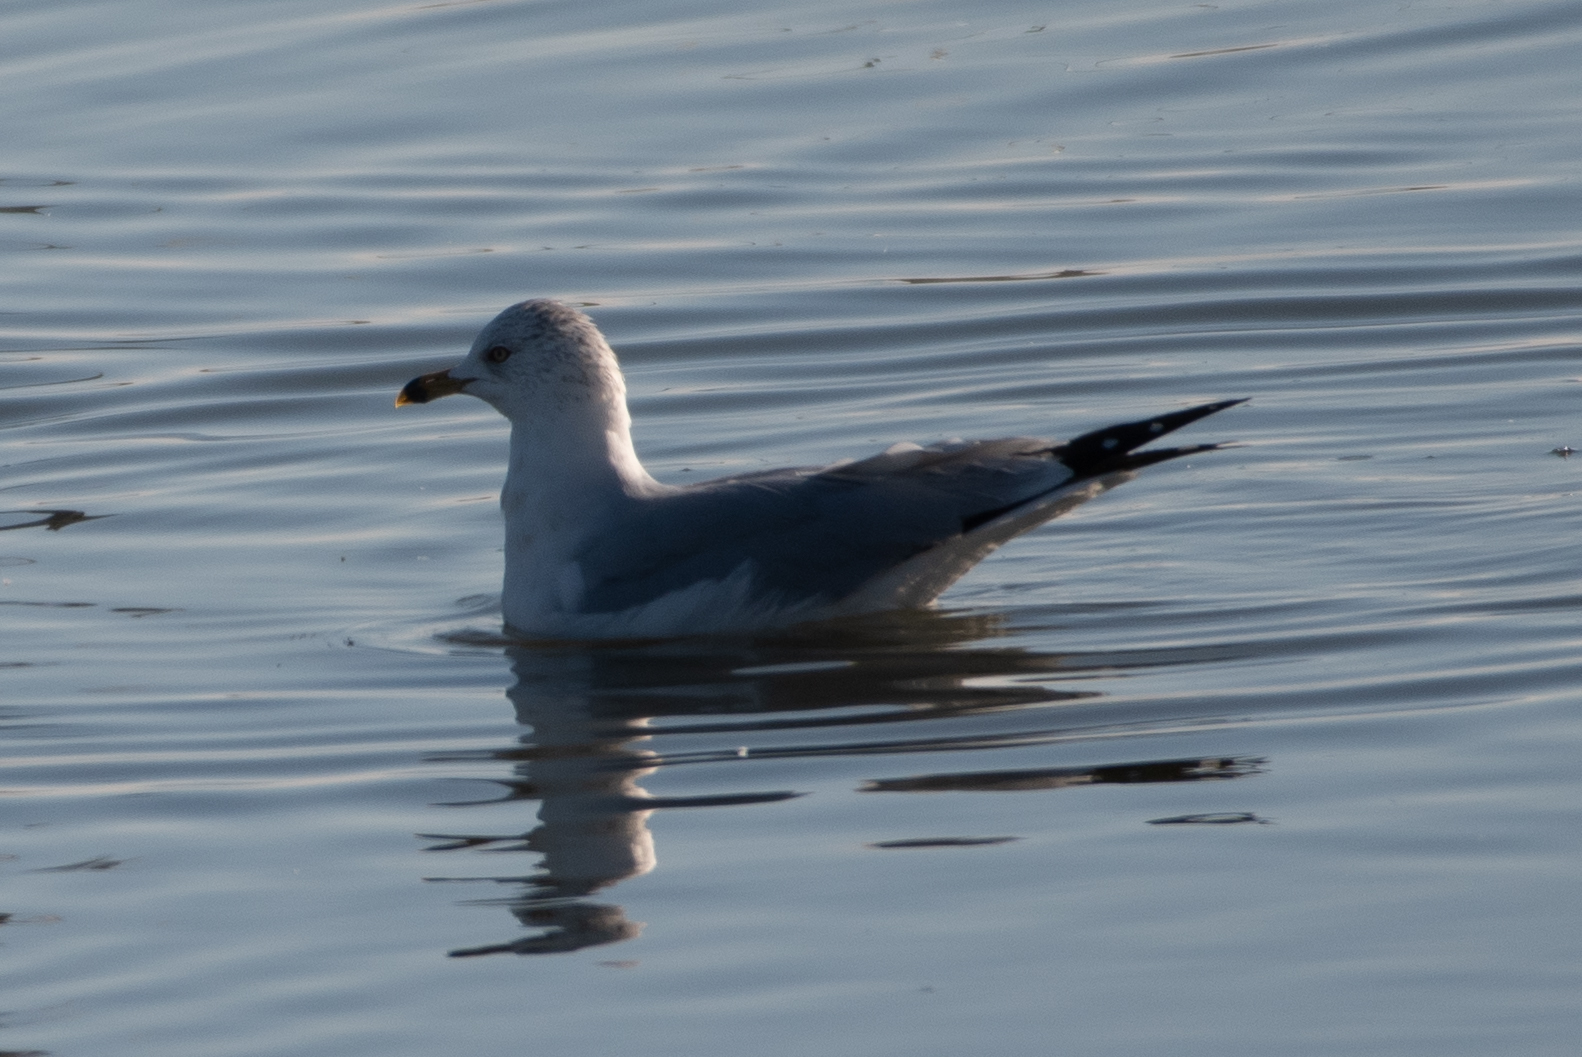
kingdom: Animalia
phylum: Chordata
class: Aves
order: Charadriiformes
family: Laridae
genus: Larus
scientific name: Larus delawarensis
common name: Ring-billed gull
